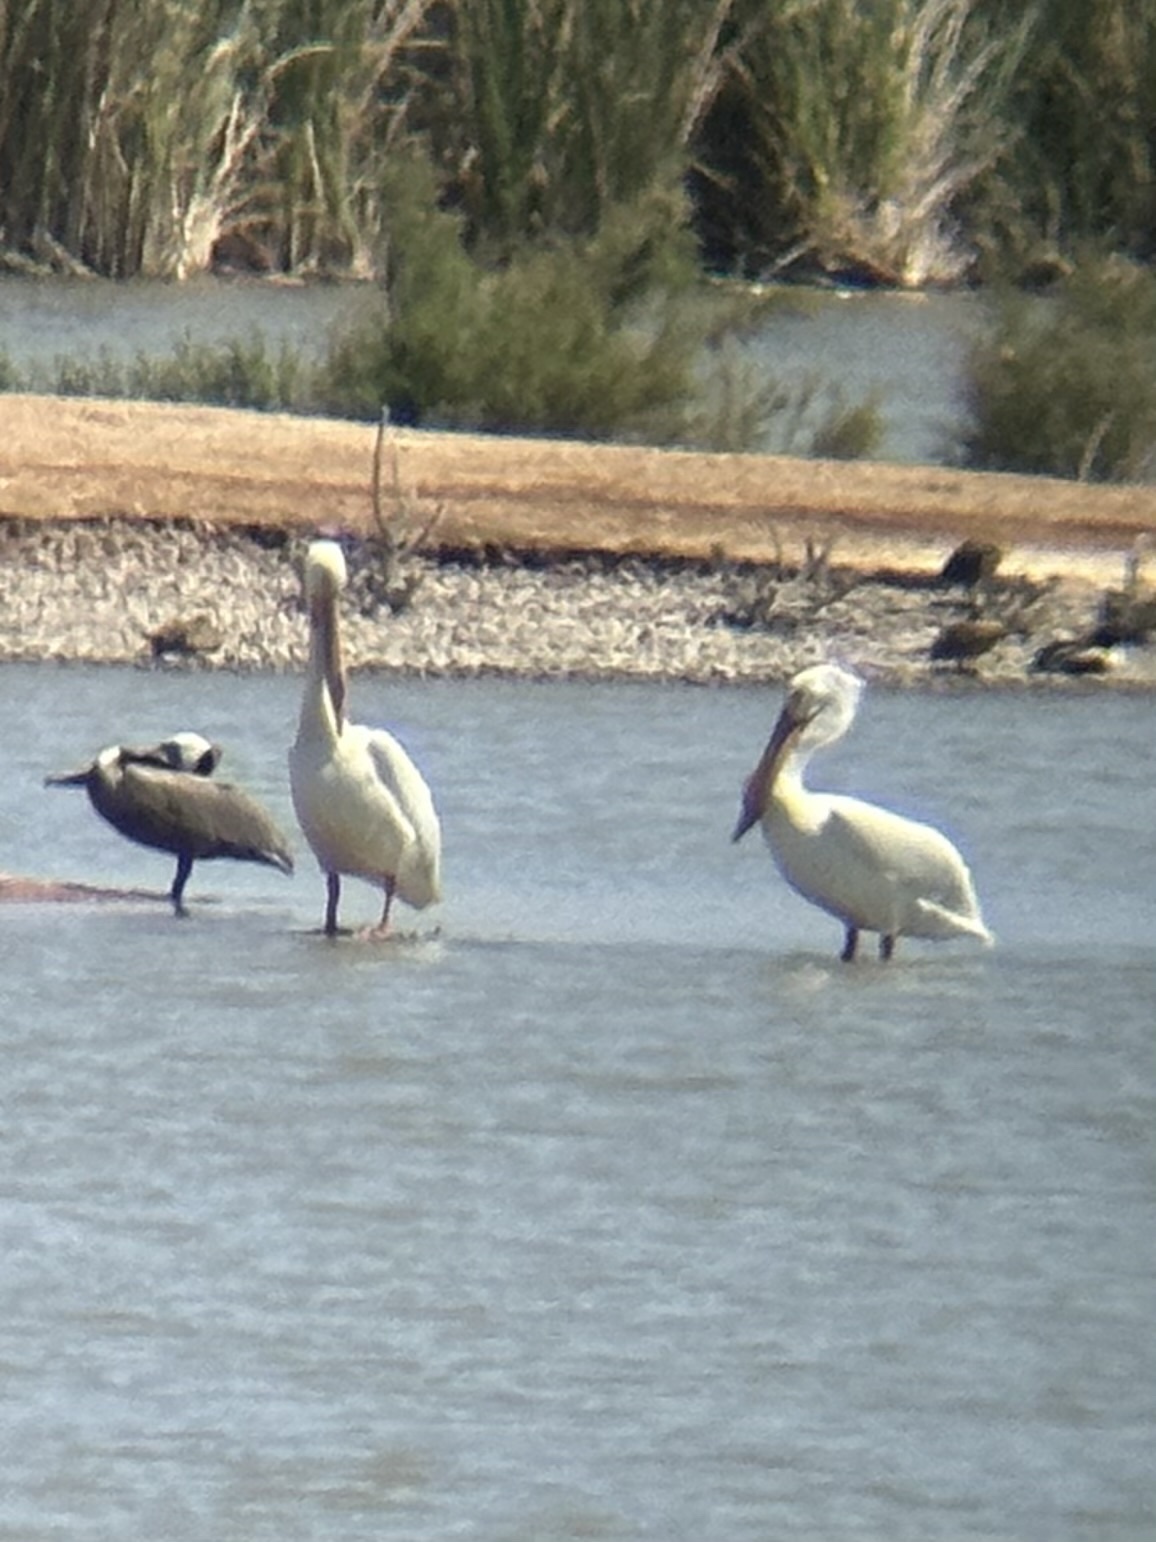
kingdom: Animalia
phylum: Chordata
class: Aves
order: Pelecaniformes
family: Pelecanidae
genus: Pelecanus
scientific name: Pelecanus erythrorhynchos
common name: American white pelican
